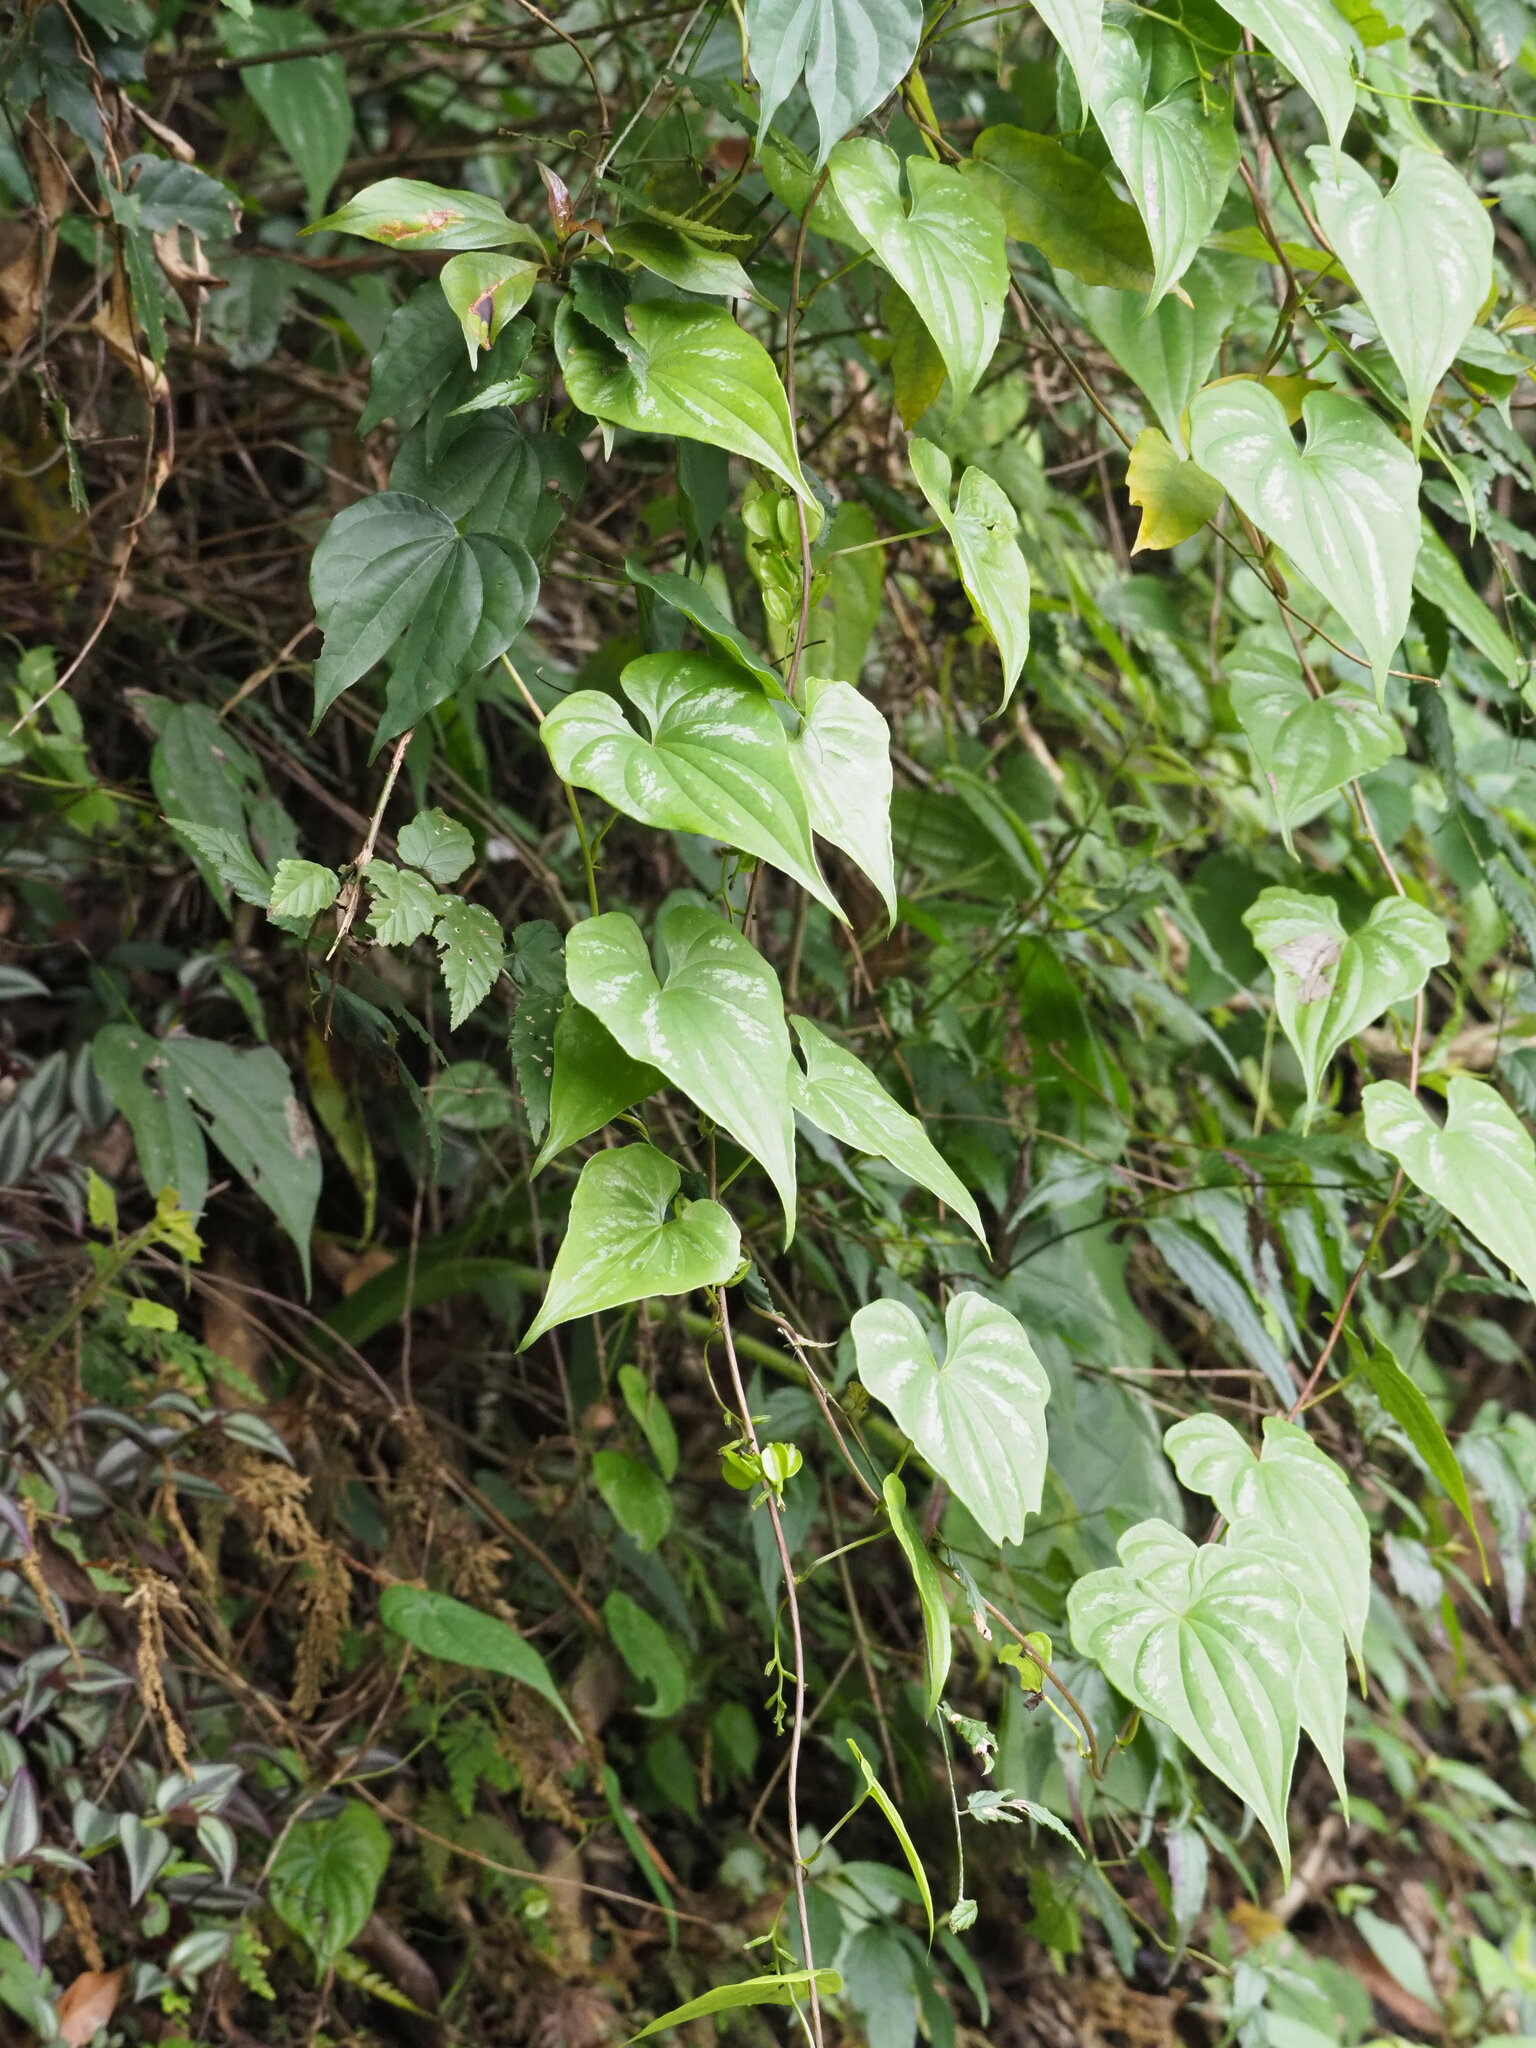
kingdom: Plantae
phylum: Tracheophyta
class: Liliopsida
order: Dioscoreales
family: Dioscoreaceae
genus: Dioscorea
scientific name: Dioscorea collettii
